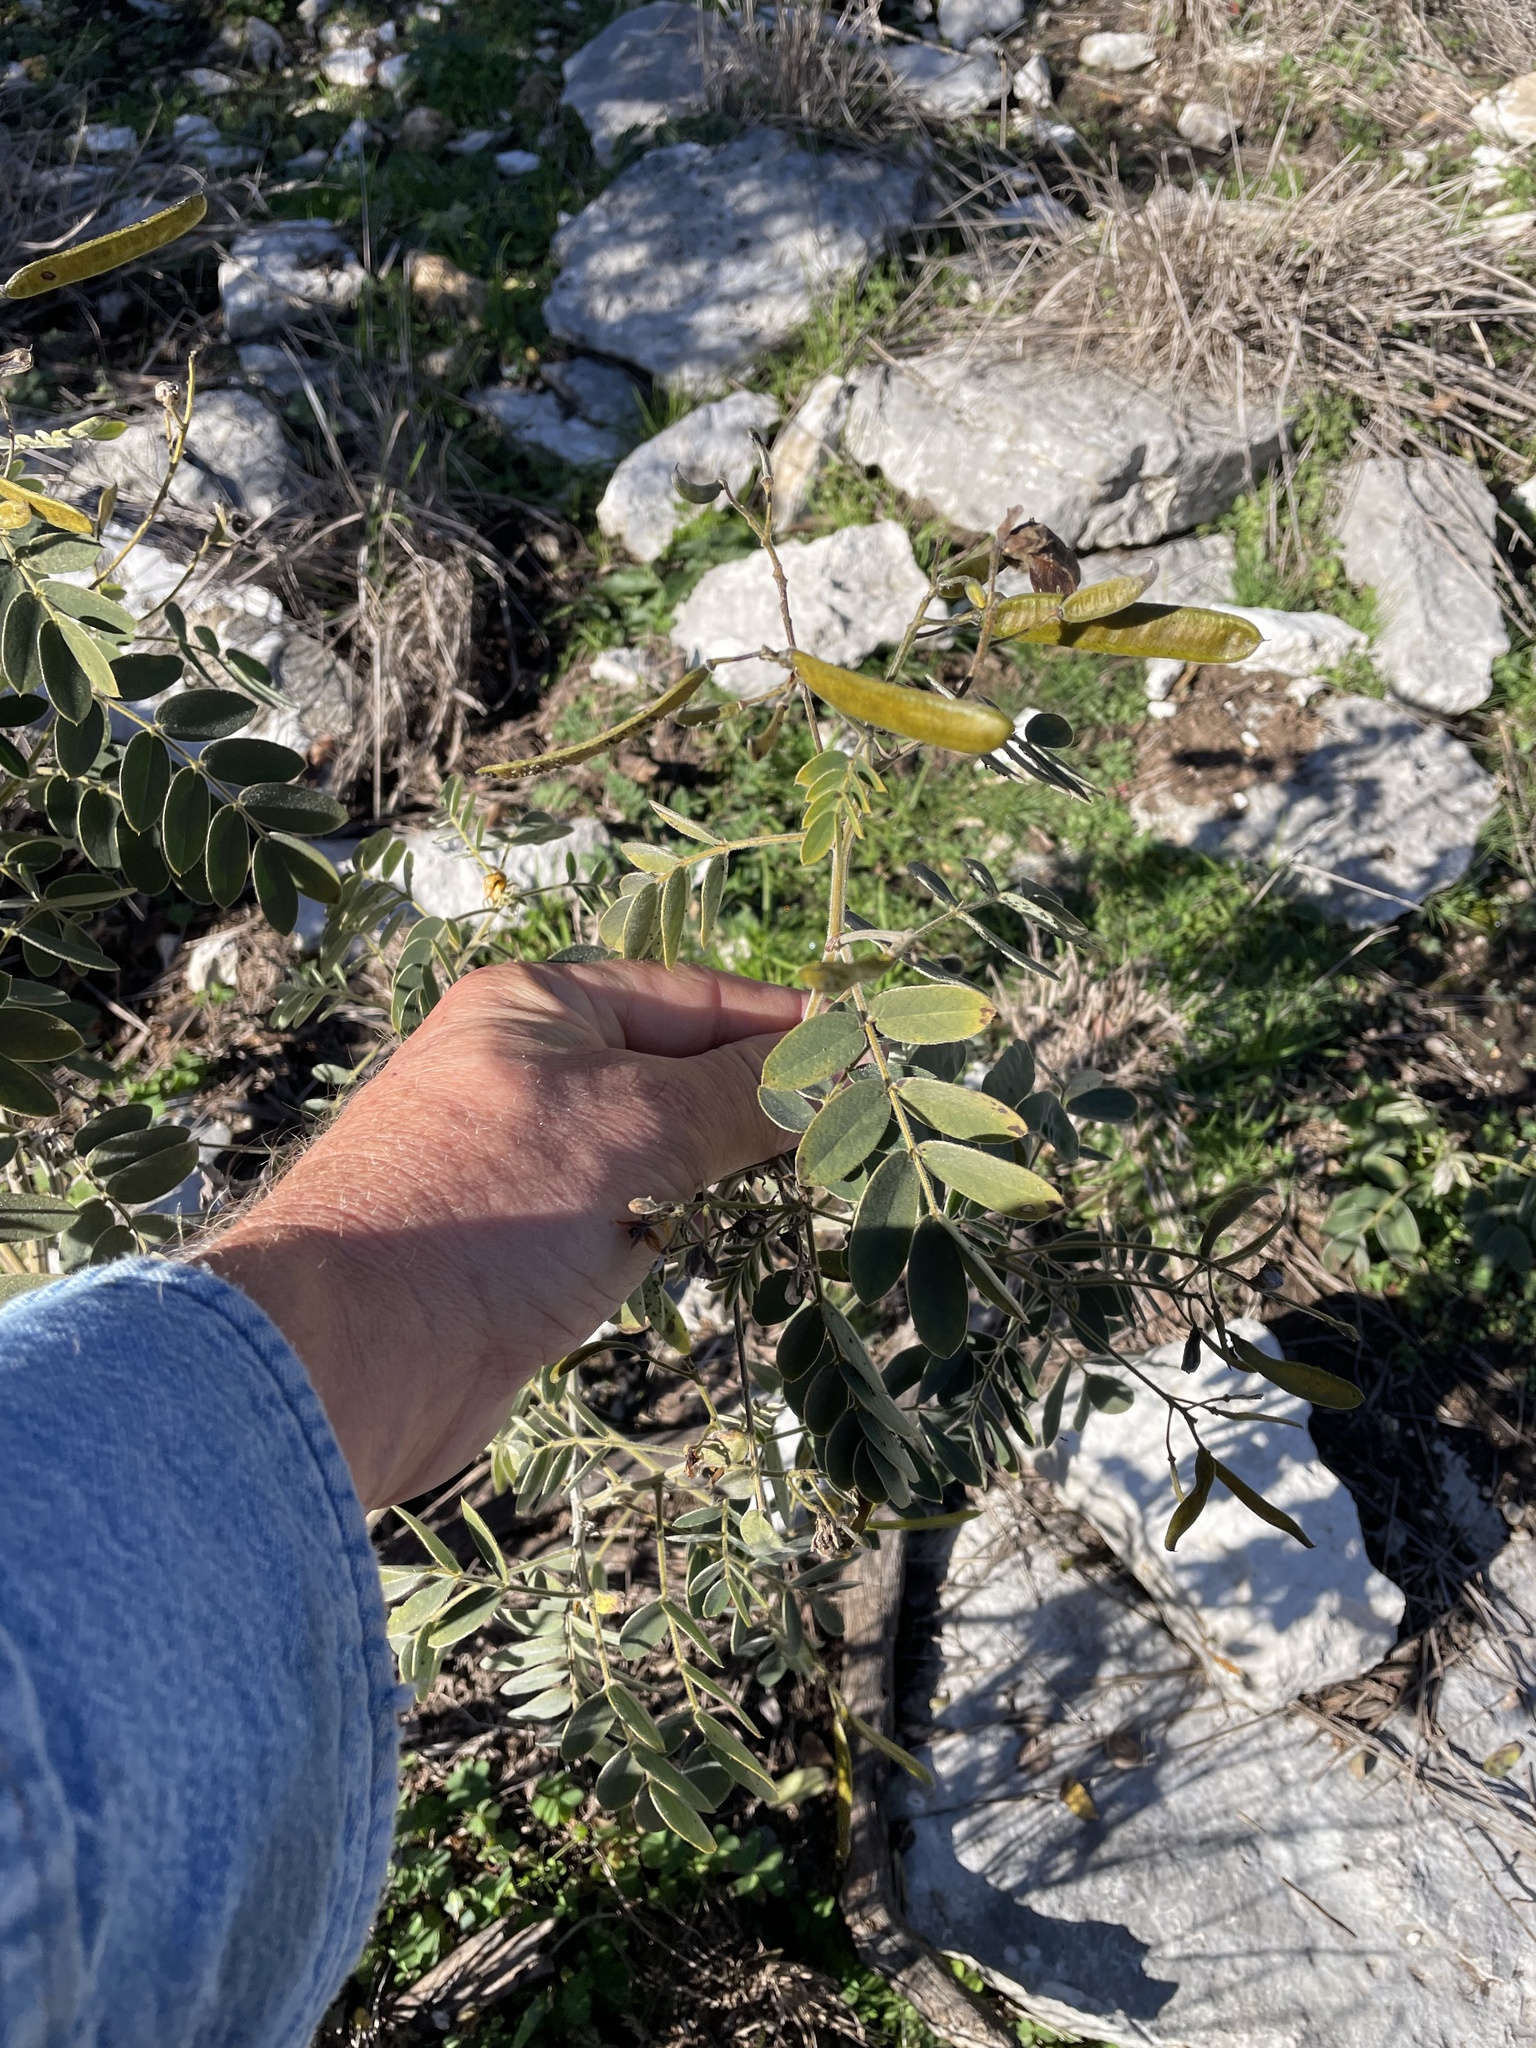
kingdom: Plantae
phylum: Tracheophyta
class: Magnoliopsida
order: Fabales
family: Fabaceae
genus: Senna
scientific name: Senna lindheimeriana
